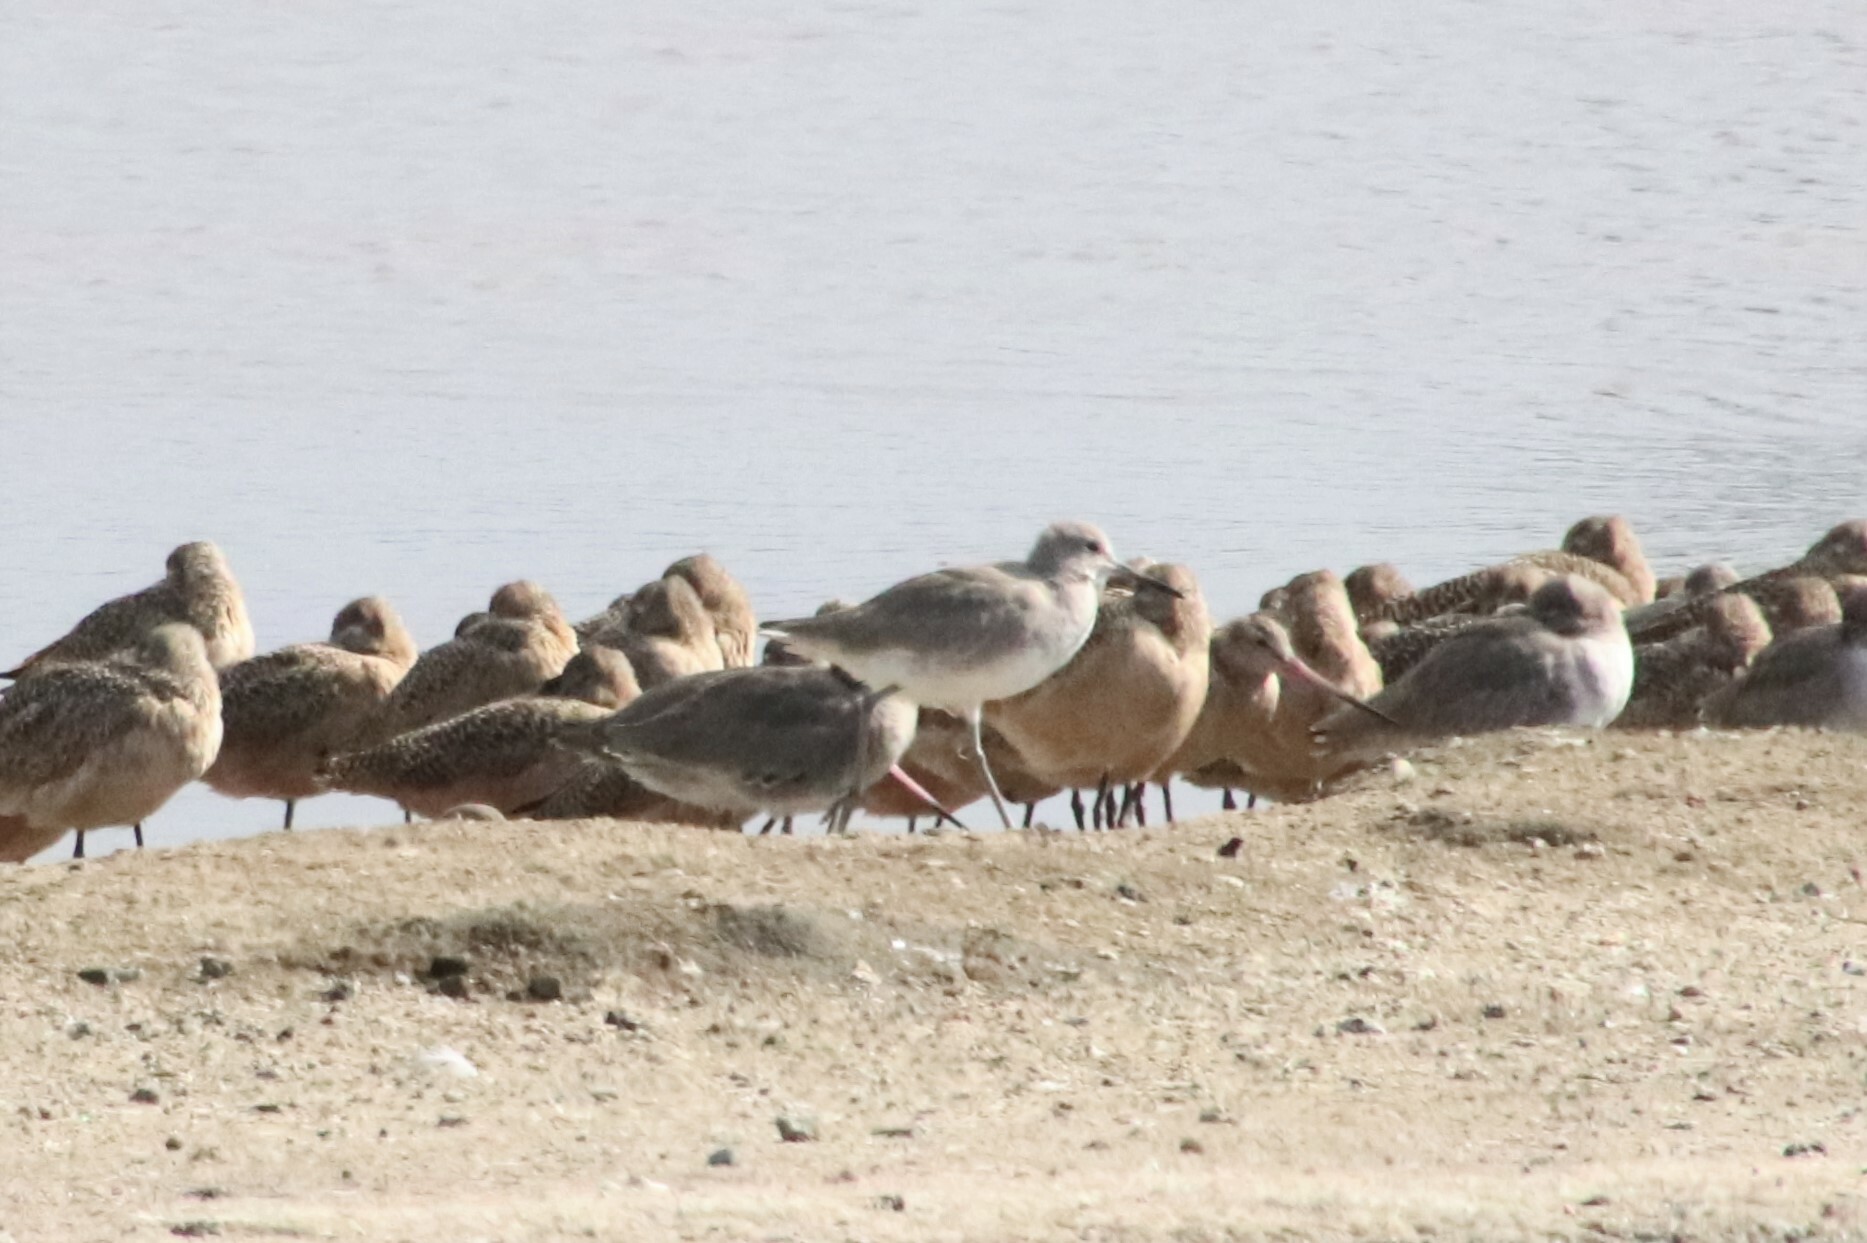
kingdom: Animalia
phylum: Chordata
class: Aves
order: Charadriiformes
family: Scolopacidae
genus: Tringa
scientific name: Tringa semipalmata
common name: Willet
